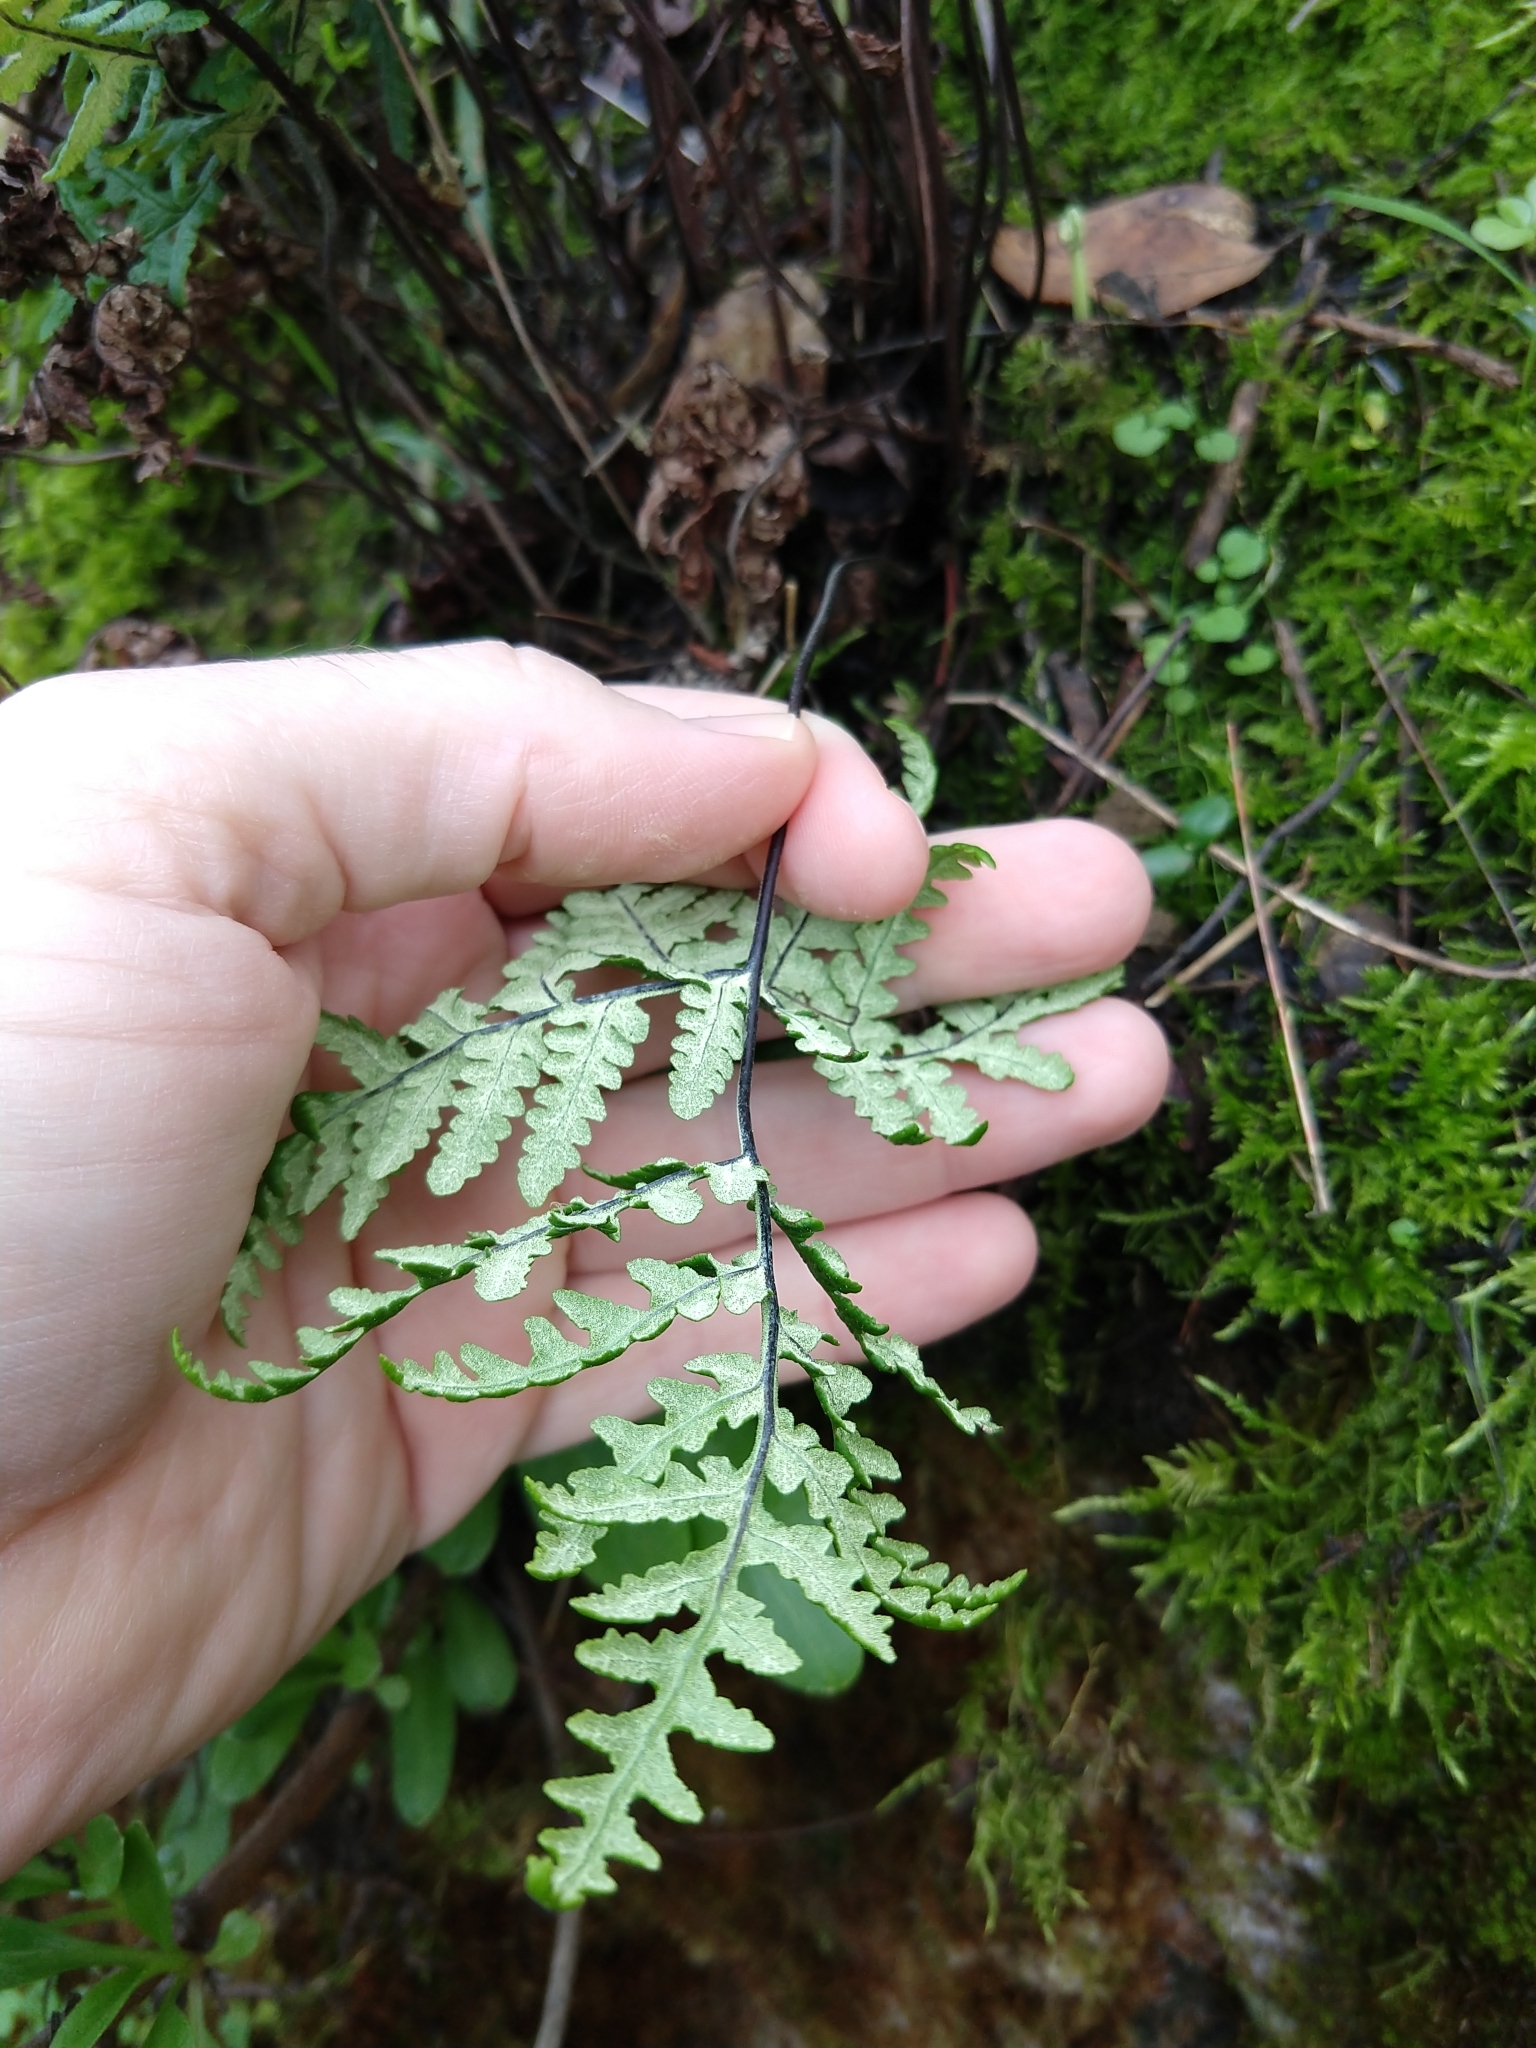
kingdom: Plantae
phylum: Tracheophyta
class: Polypodiopsida
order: Polypodiales
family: Pteridaceae
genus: Pentagramma
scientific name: Pentagramma triangularis
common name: Gold fern
